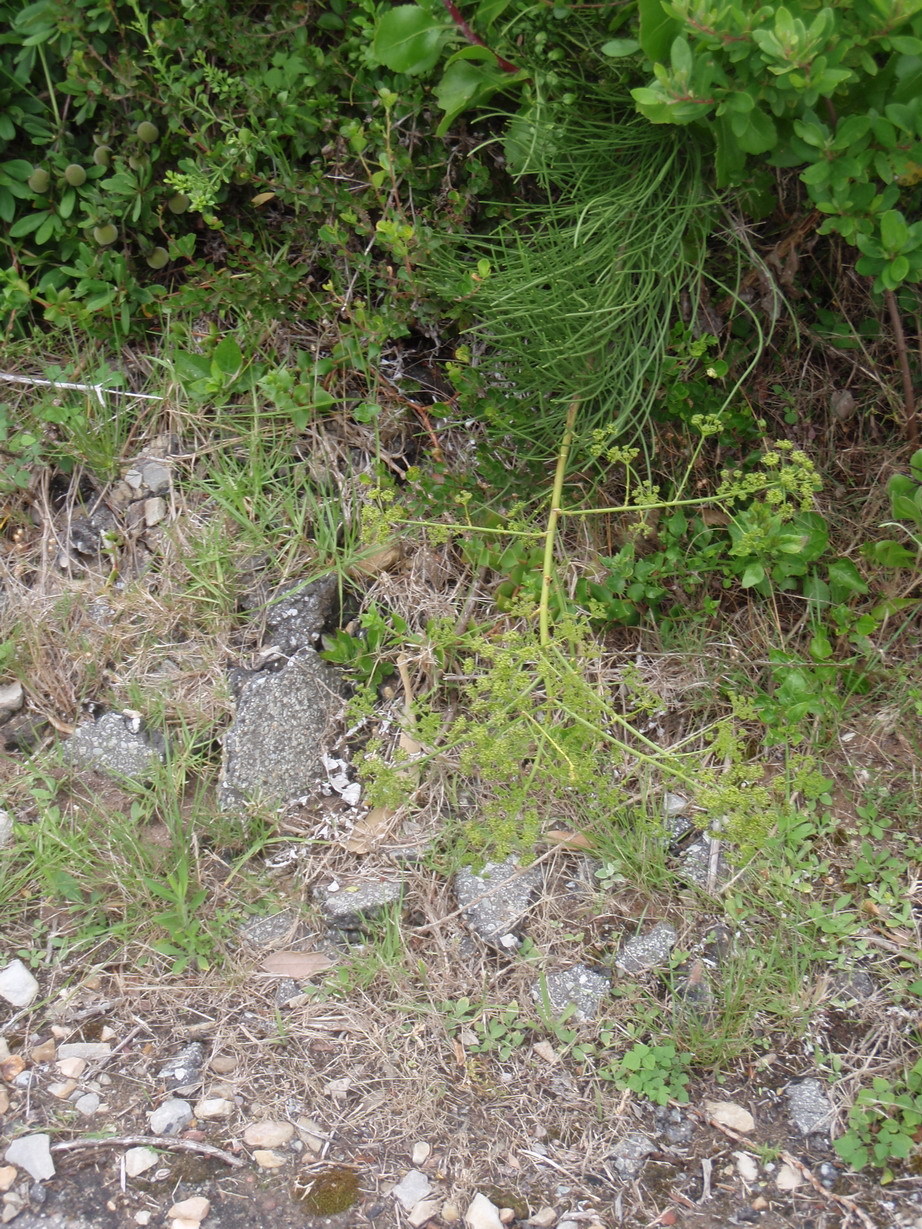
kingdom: Plantae
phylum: Tracheophyta
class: Magnoliopsida
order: Apiales
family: Apiaceae
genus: Anginon
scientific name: Anginon difforme
